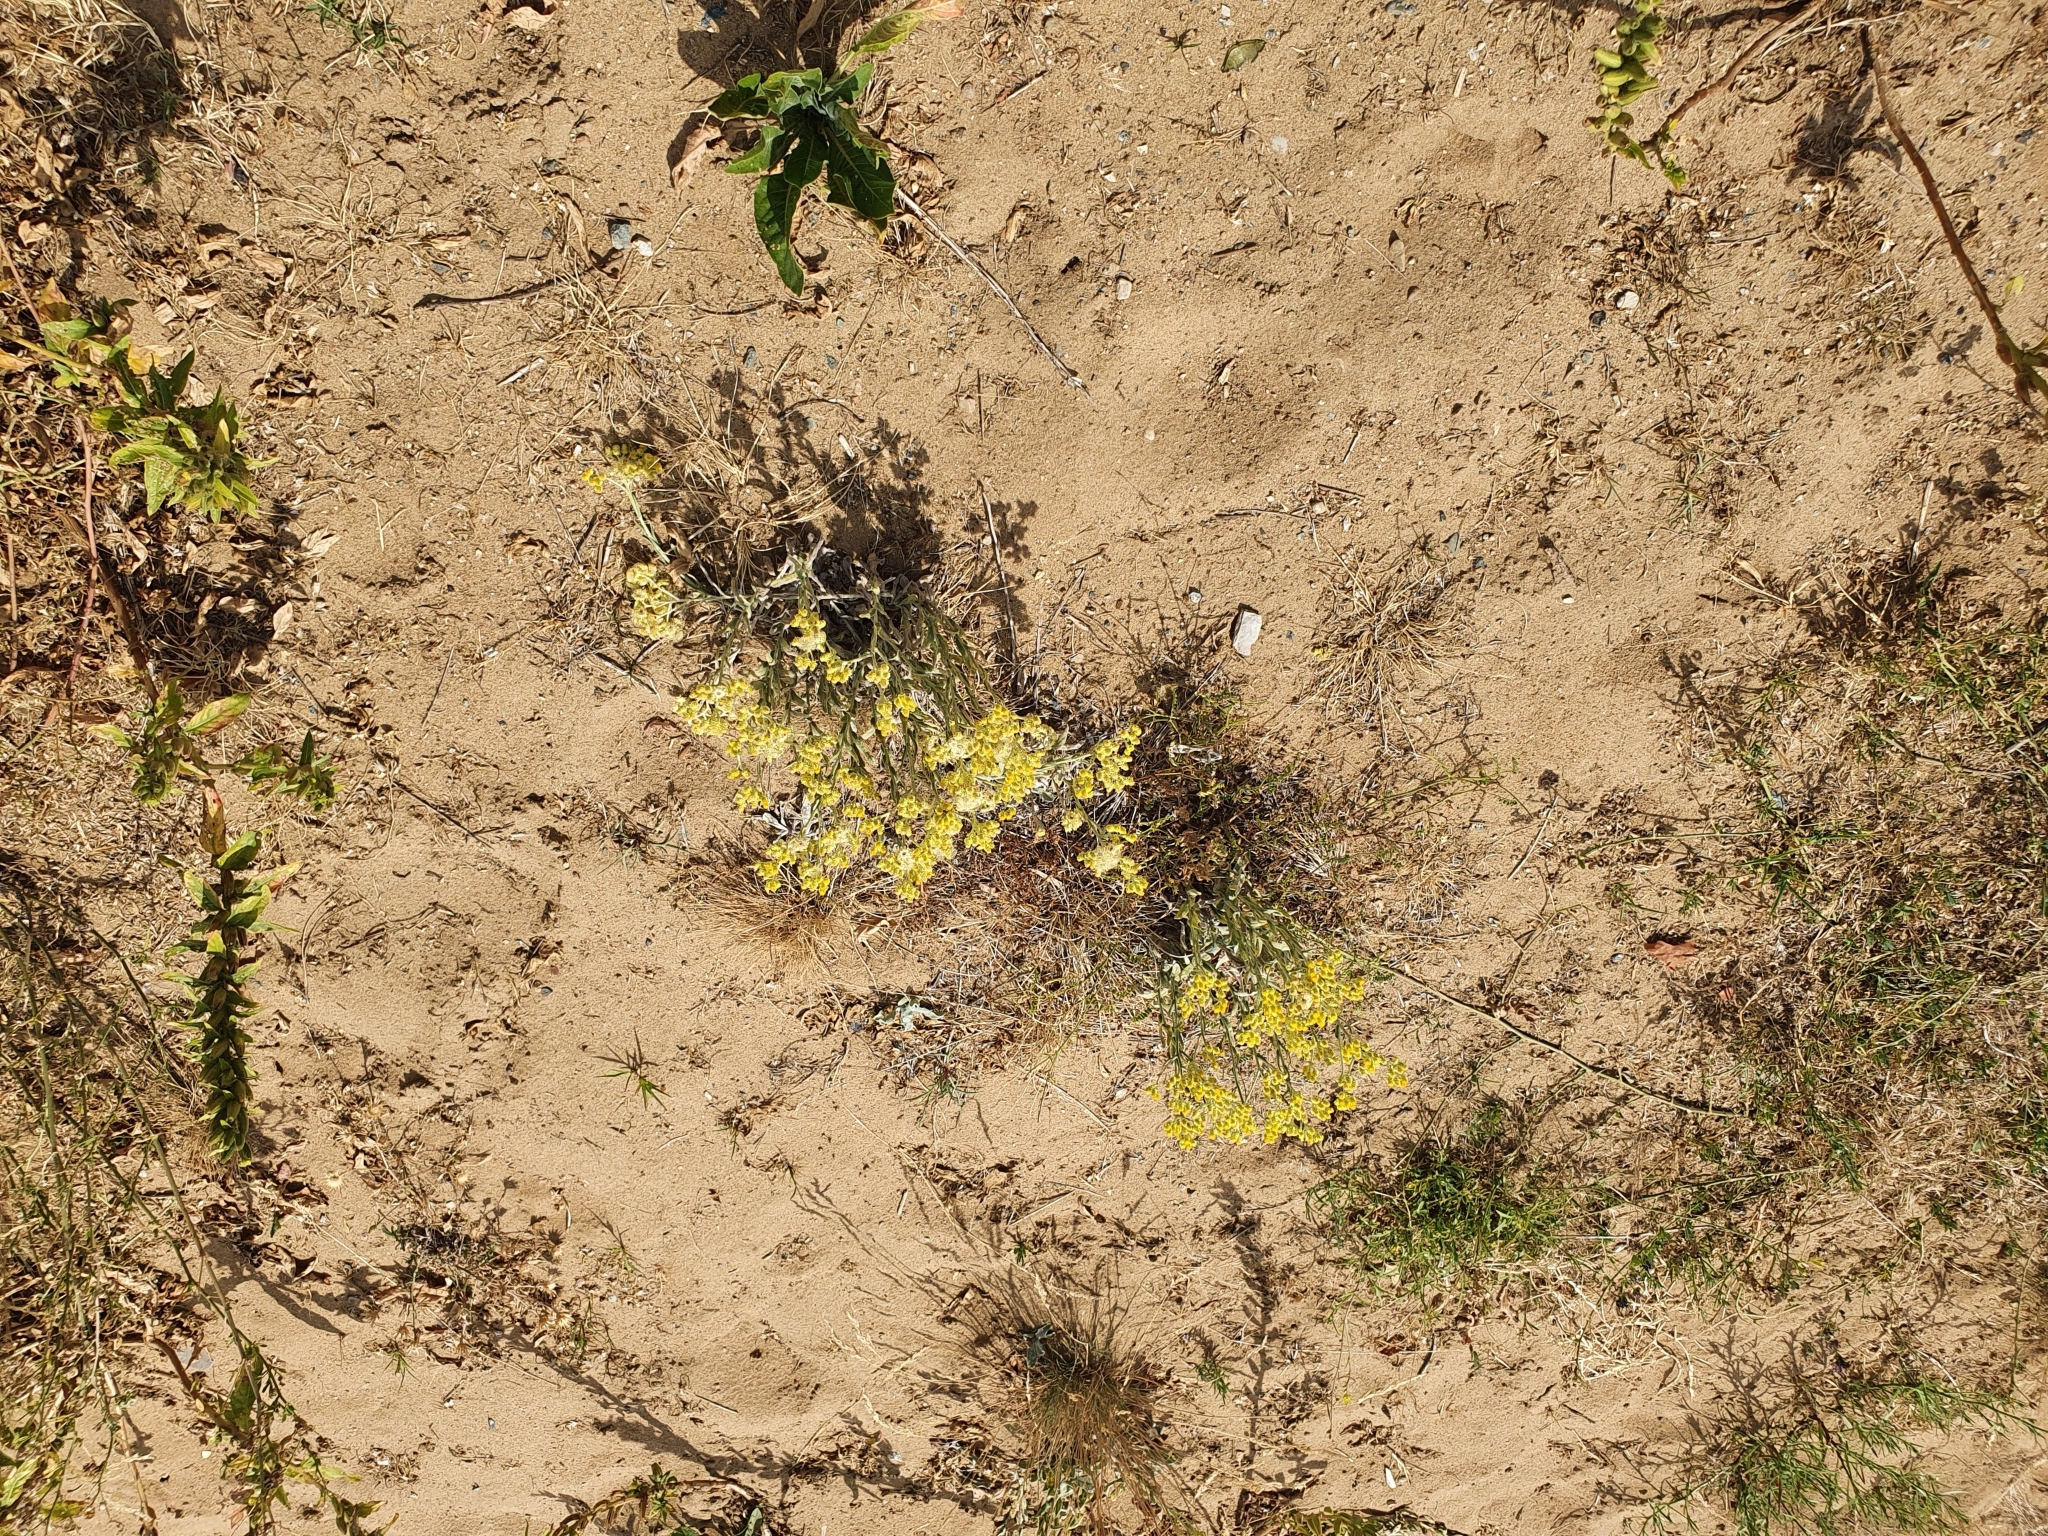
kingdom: Plantae
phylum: Tracheophyta
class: Magnoliopsida
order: Asterales
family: Asteraceae
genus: Helichrysum
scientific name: Helichrysum arenarium
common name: Strawflower
